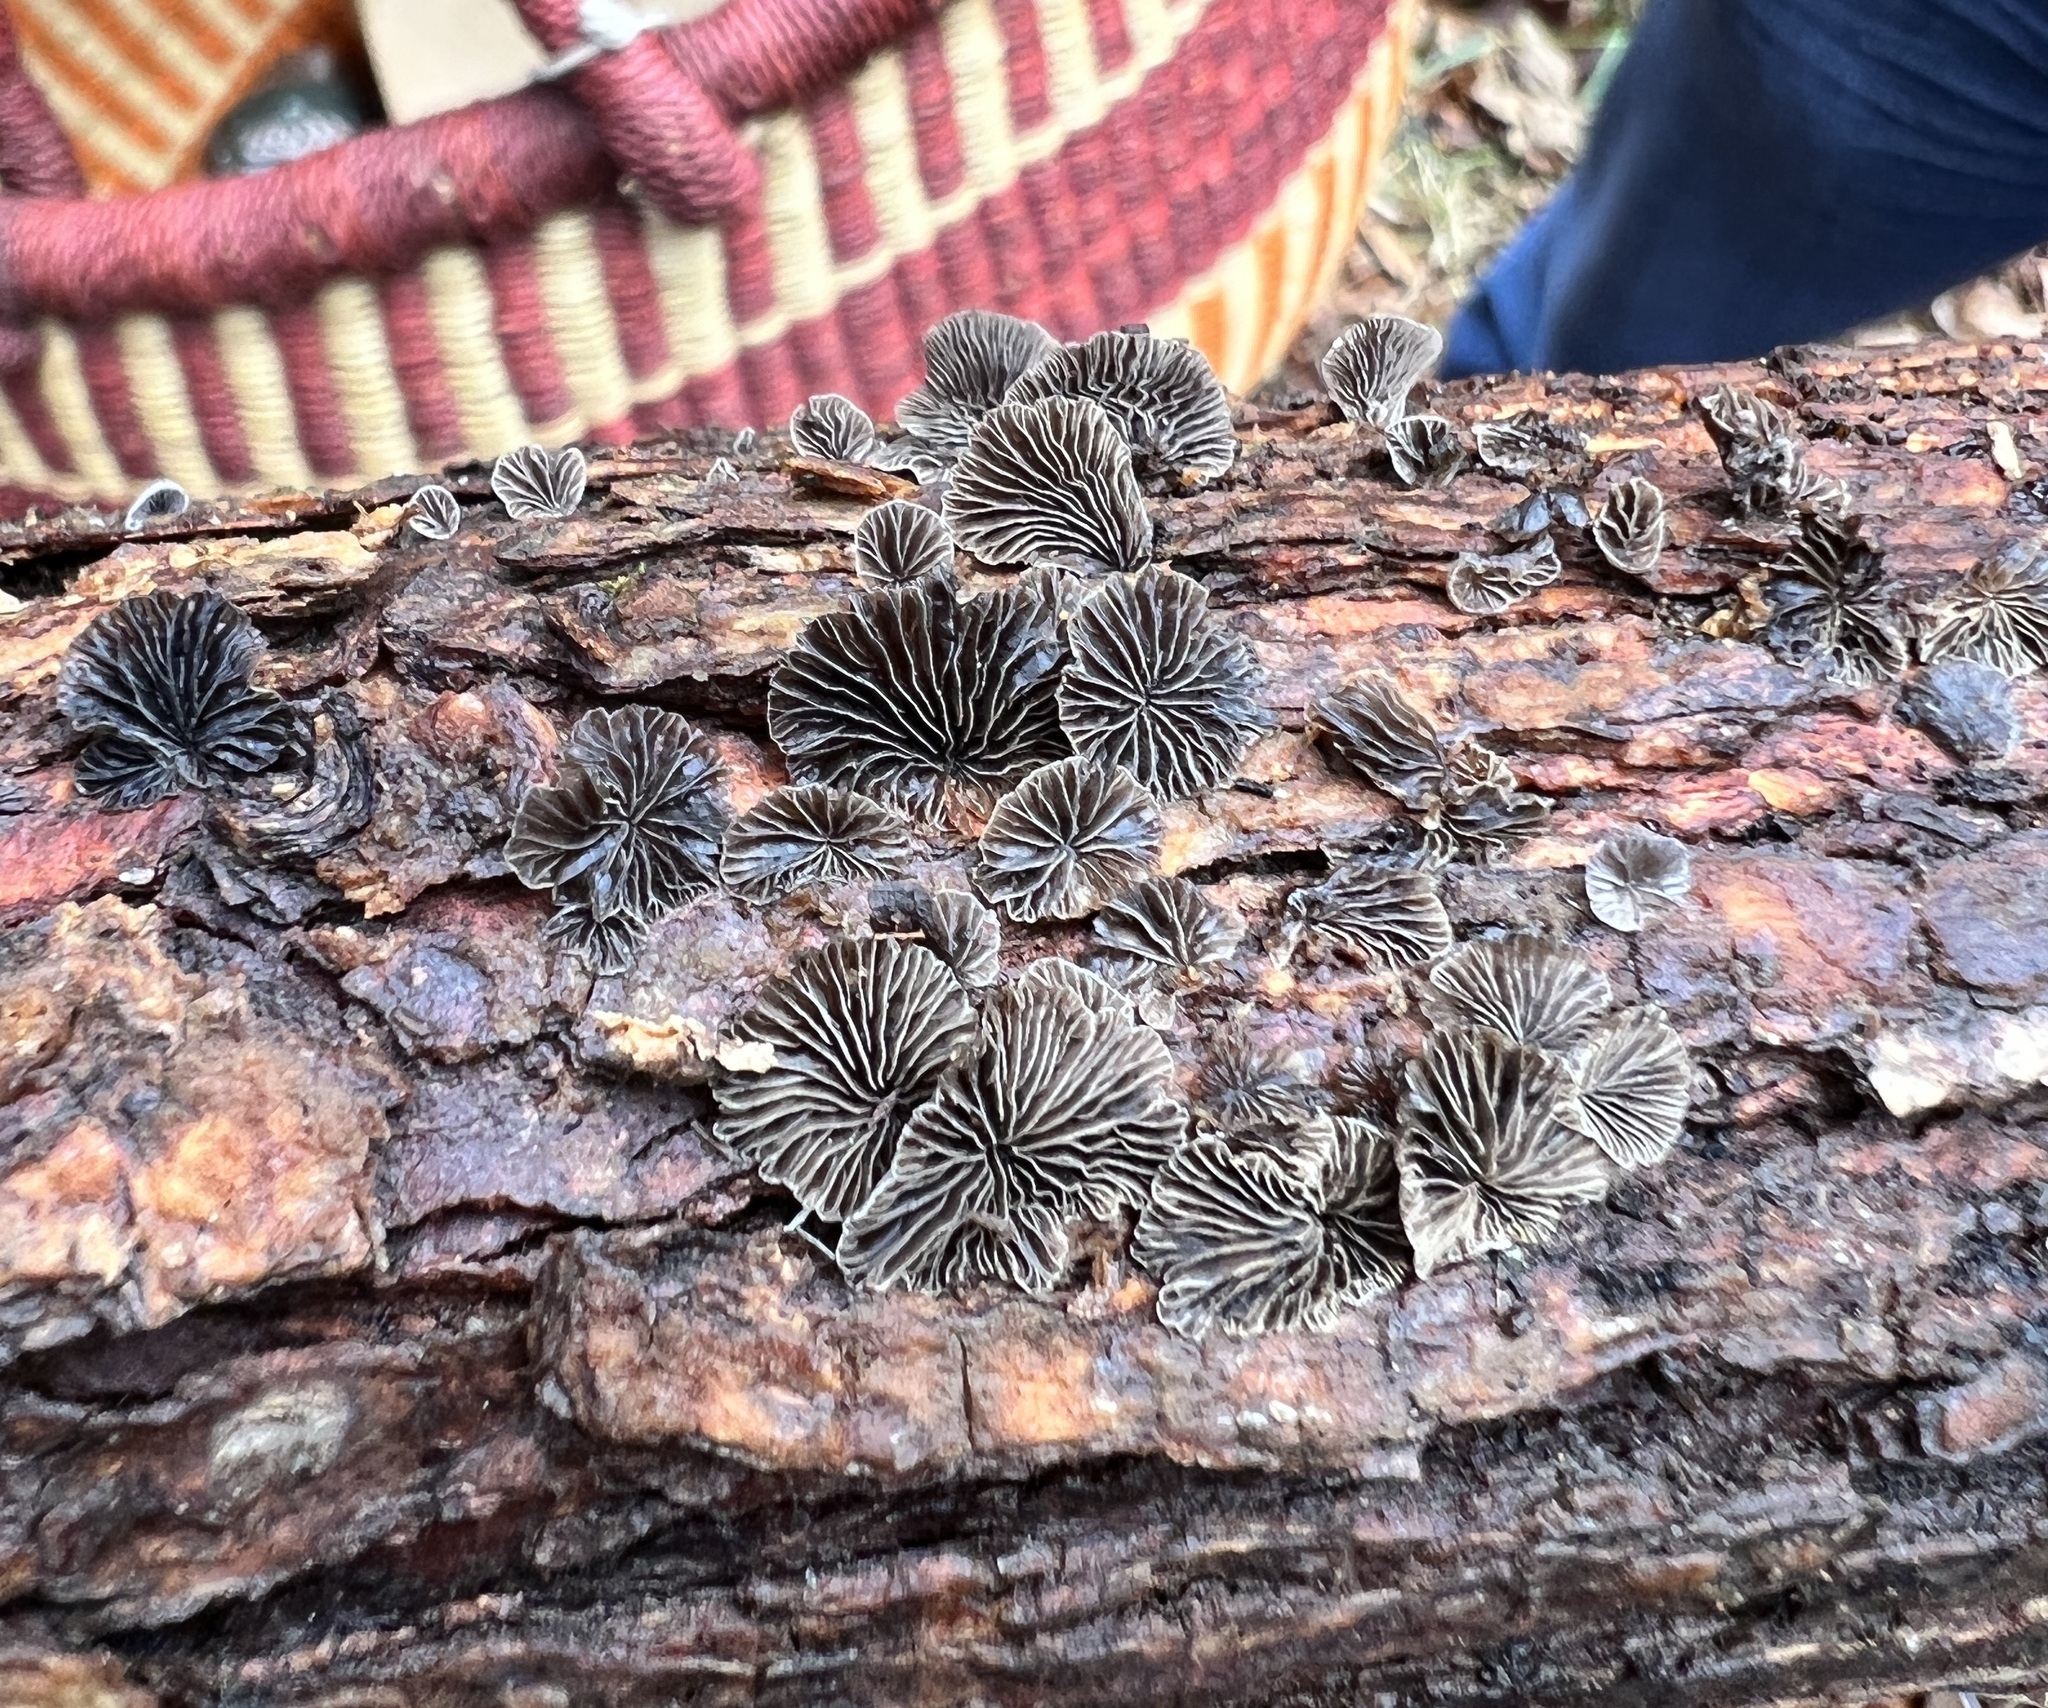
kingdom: Fungi
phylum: Basidiomycota
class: Agaricomycetes
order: Agaricales
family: Pleurotaceae
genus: Resupinatus
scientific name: Resupinatus applicatus
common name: Smoked oysterling
